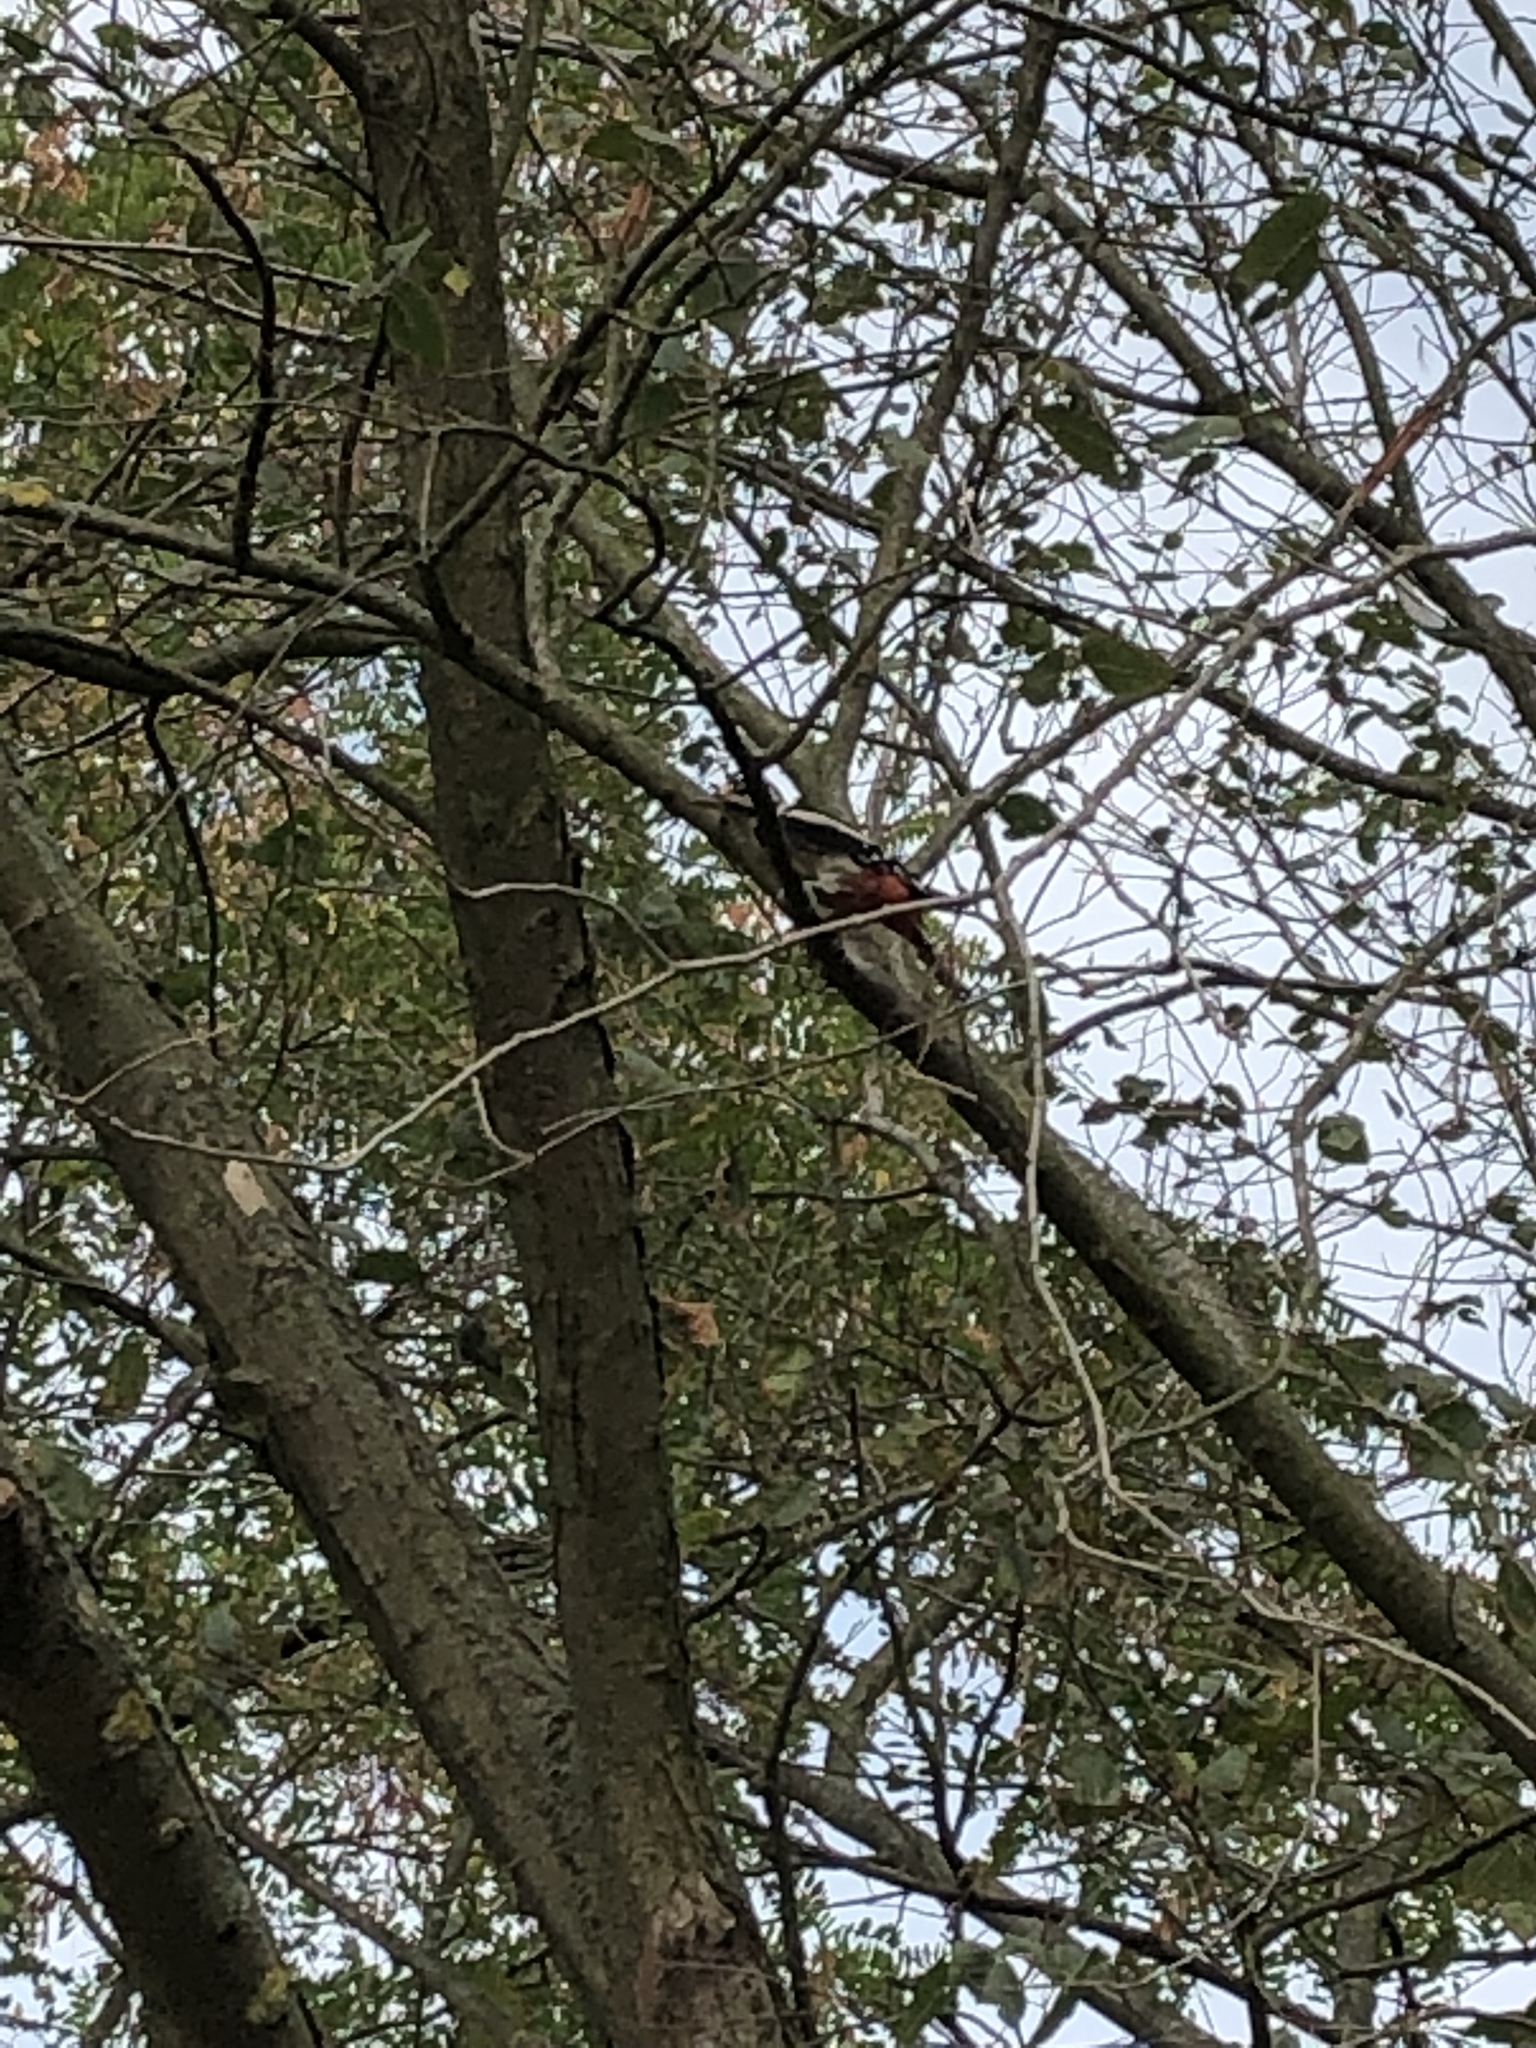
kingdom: Animalia
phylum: Chordata
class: Aves
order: Piciformes
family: Picidae
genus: Dendrocopos
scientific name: Dendrocopos major
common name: Great spotted woodpecker
